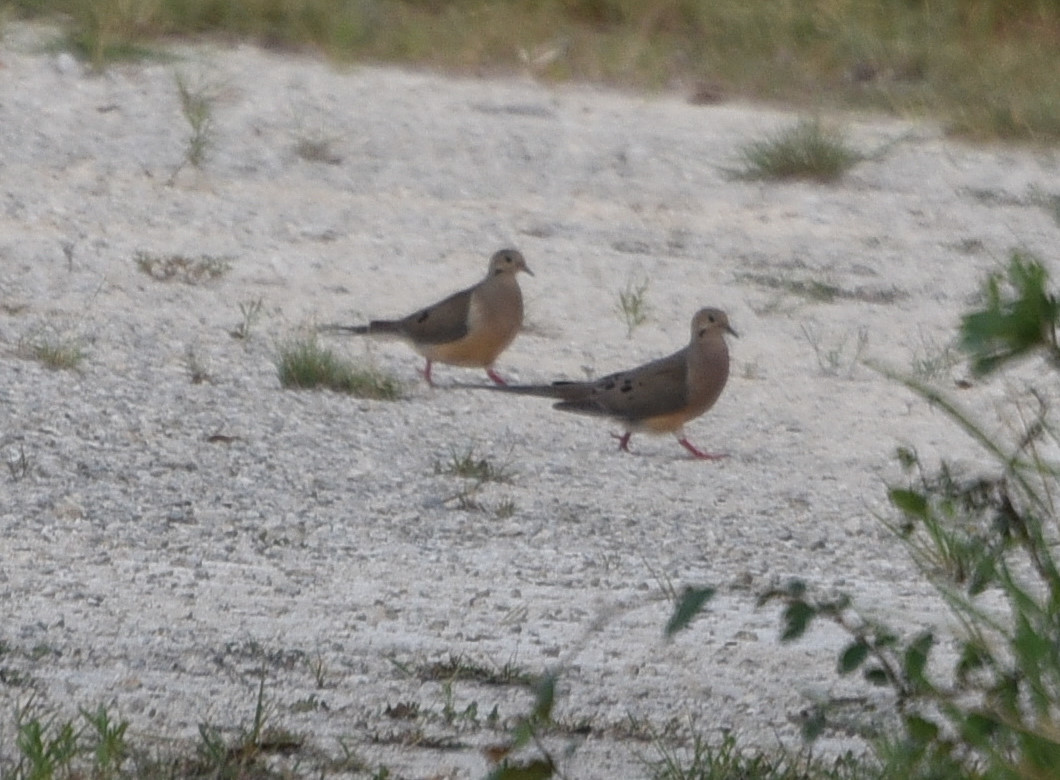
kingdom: Animalia
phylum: Chordata
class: Aves
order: Columbiformes
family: Columbidae
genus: Zenaida
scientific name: Zenaida macroura
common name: Mourning dove
